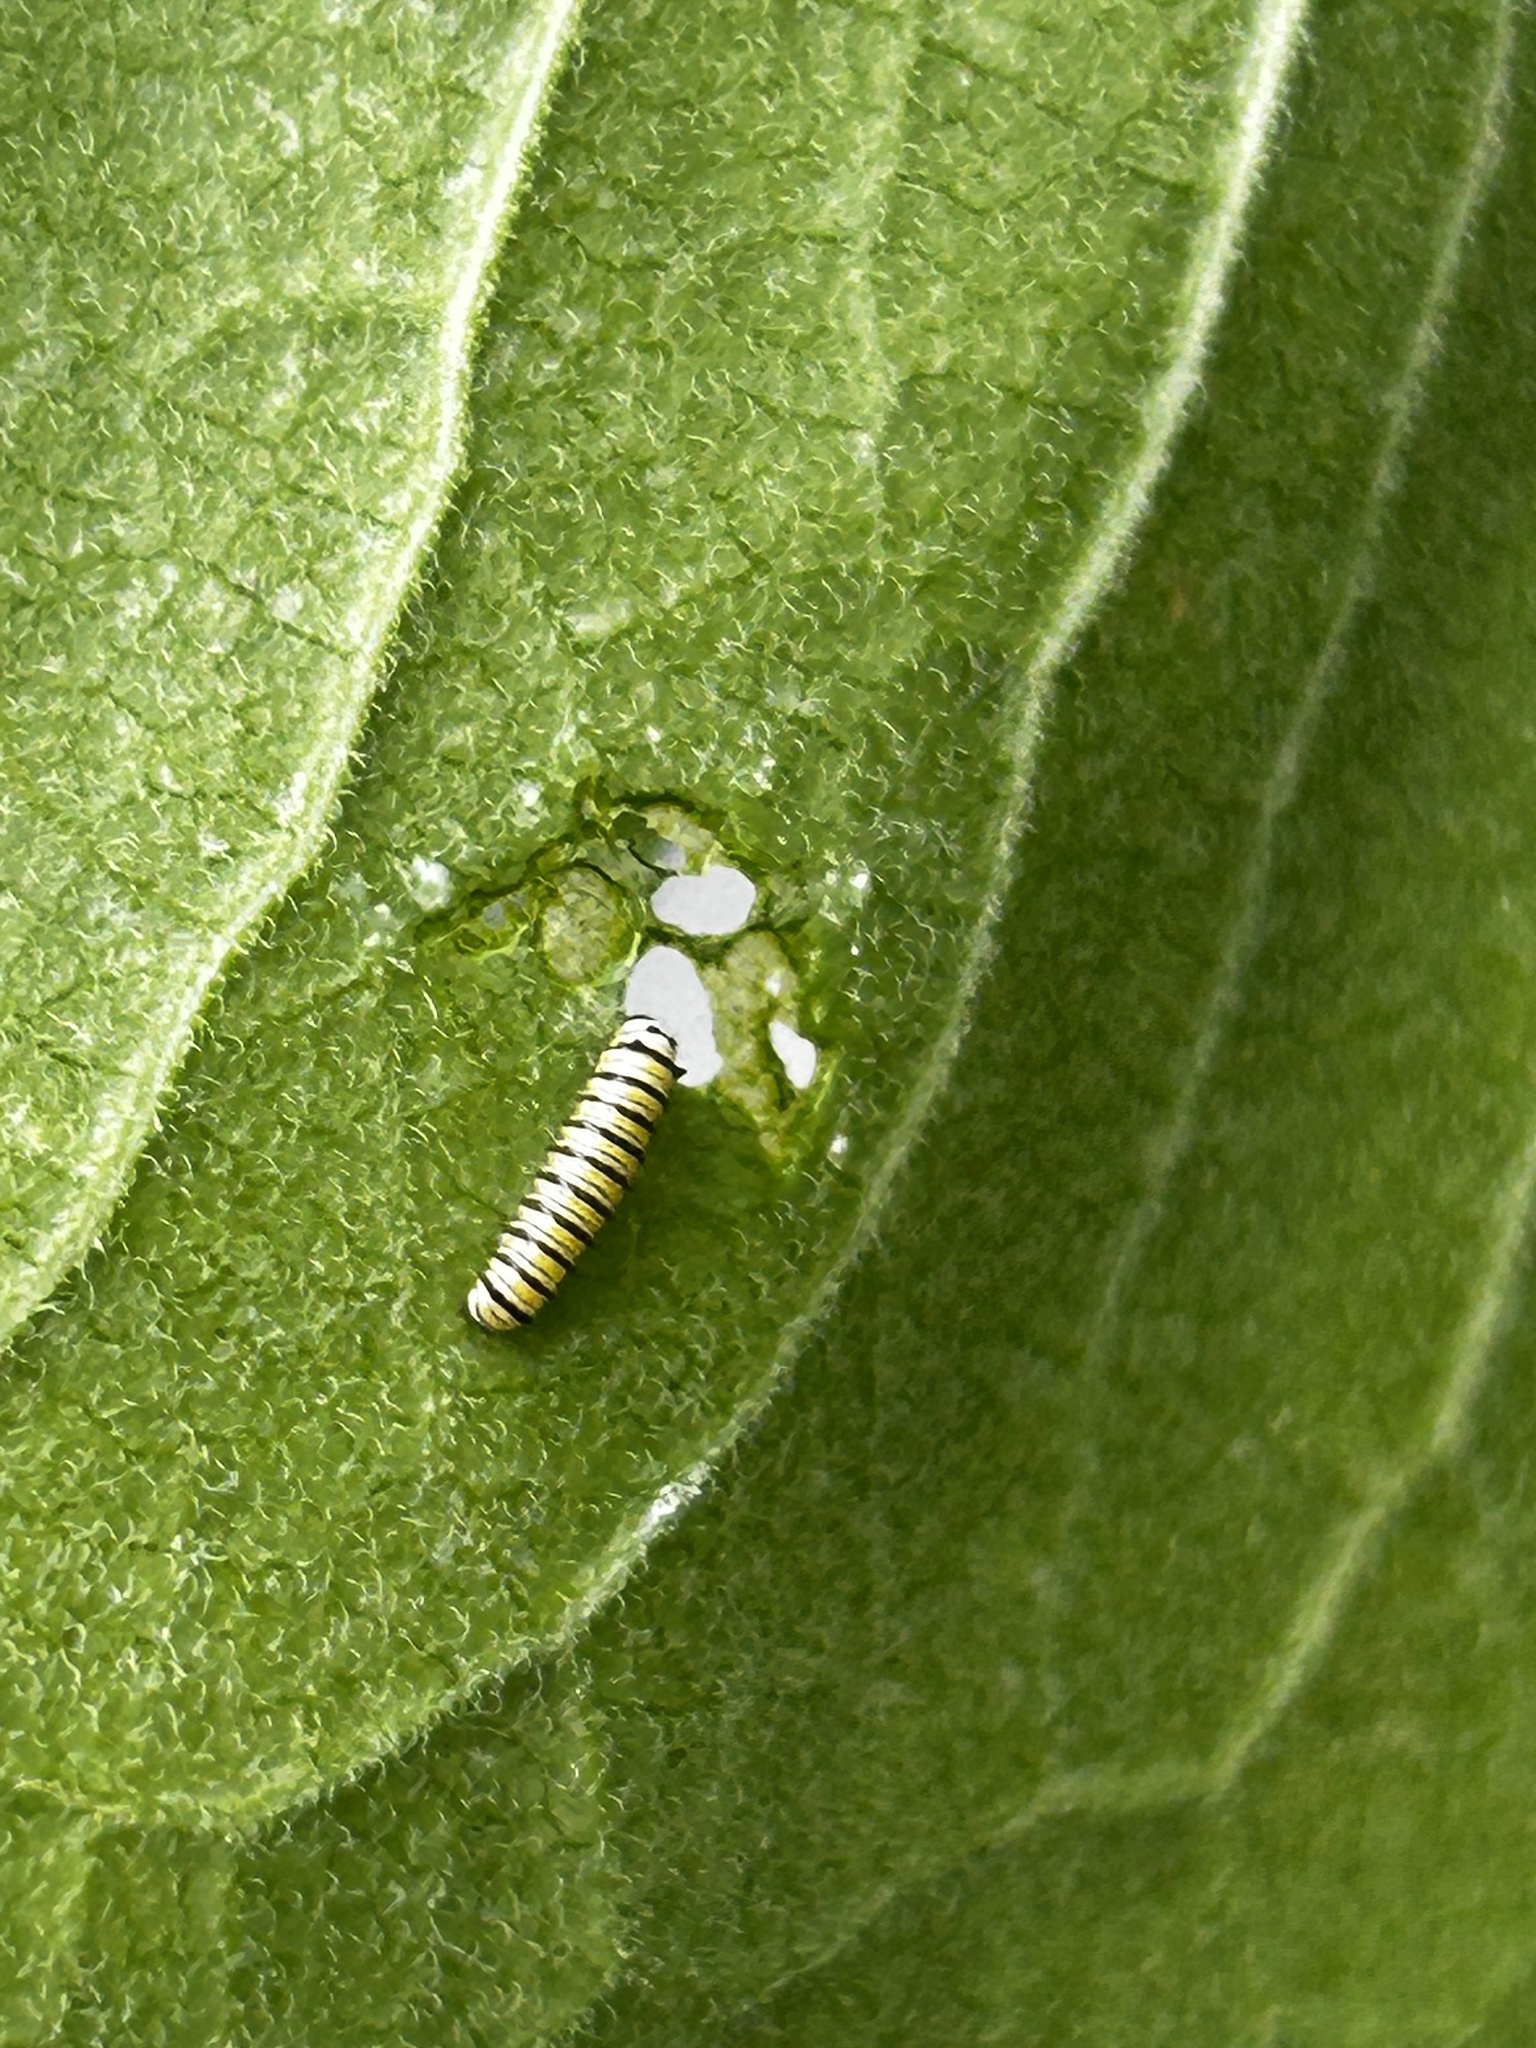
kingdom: Animalia
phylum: Arthropoda
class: Insecta
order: Lepidoptera
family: Nymphalidae
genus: Danaus
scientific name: Danaus plexippus
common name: Monarch
